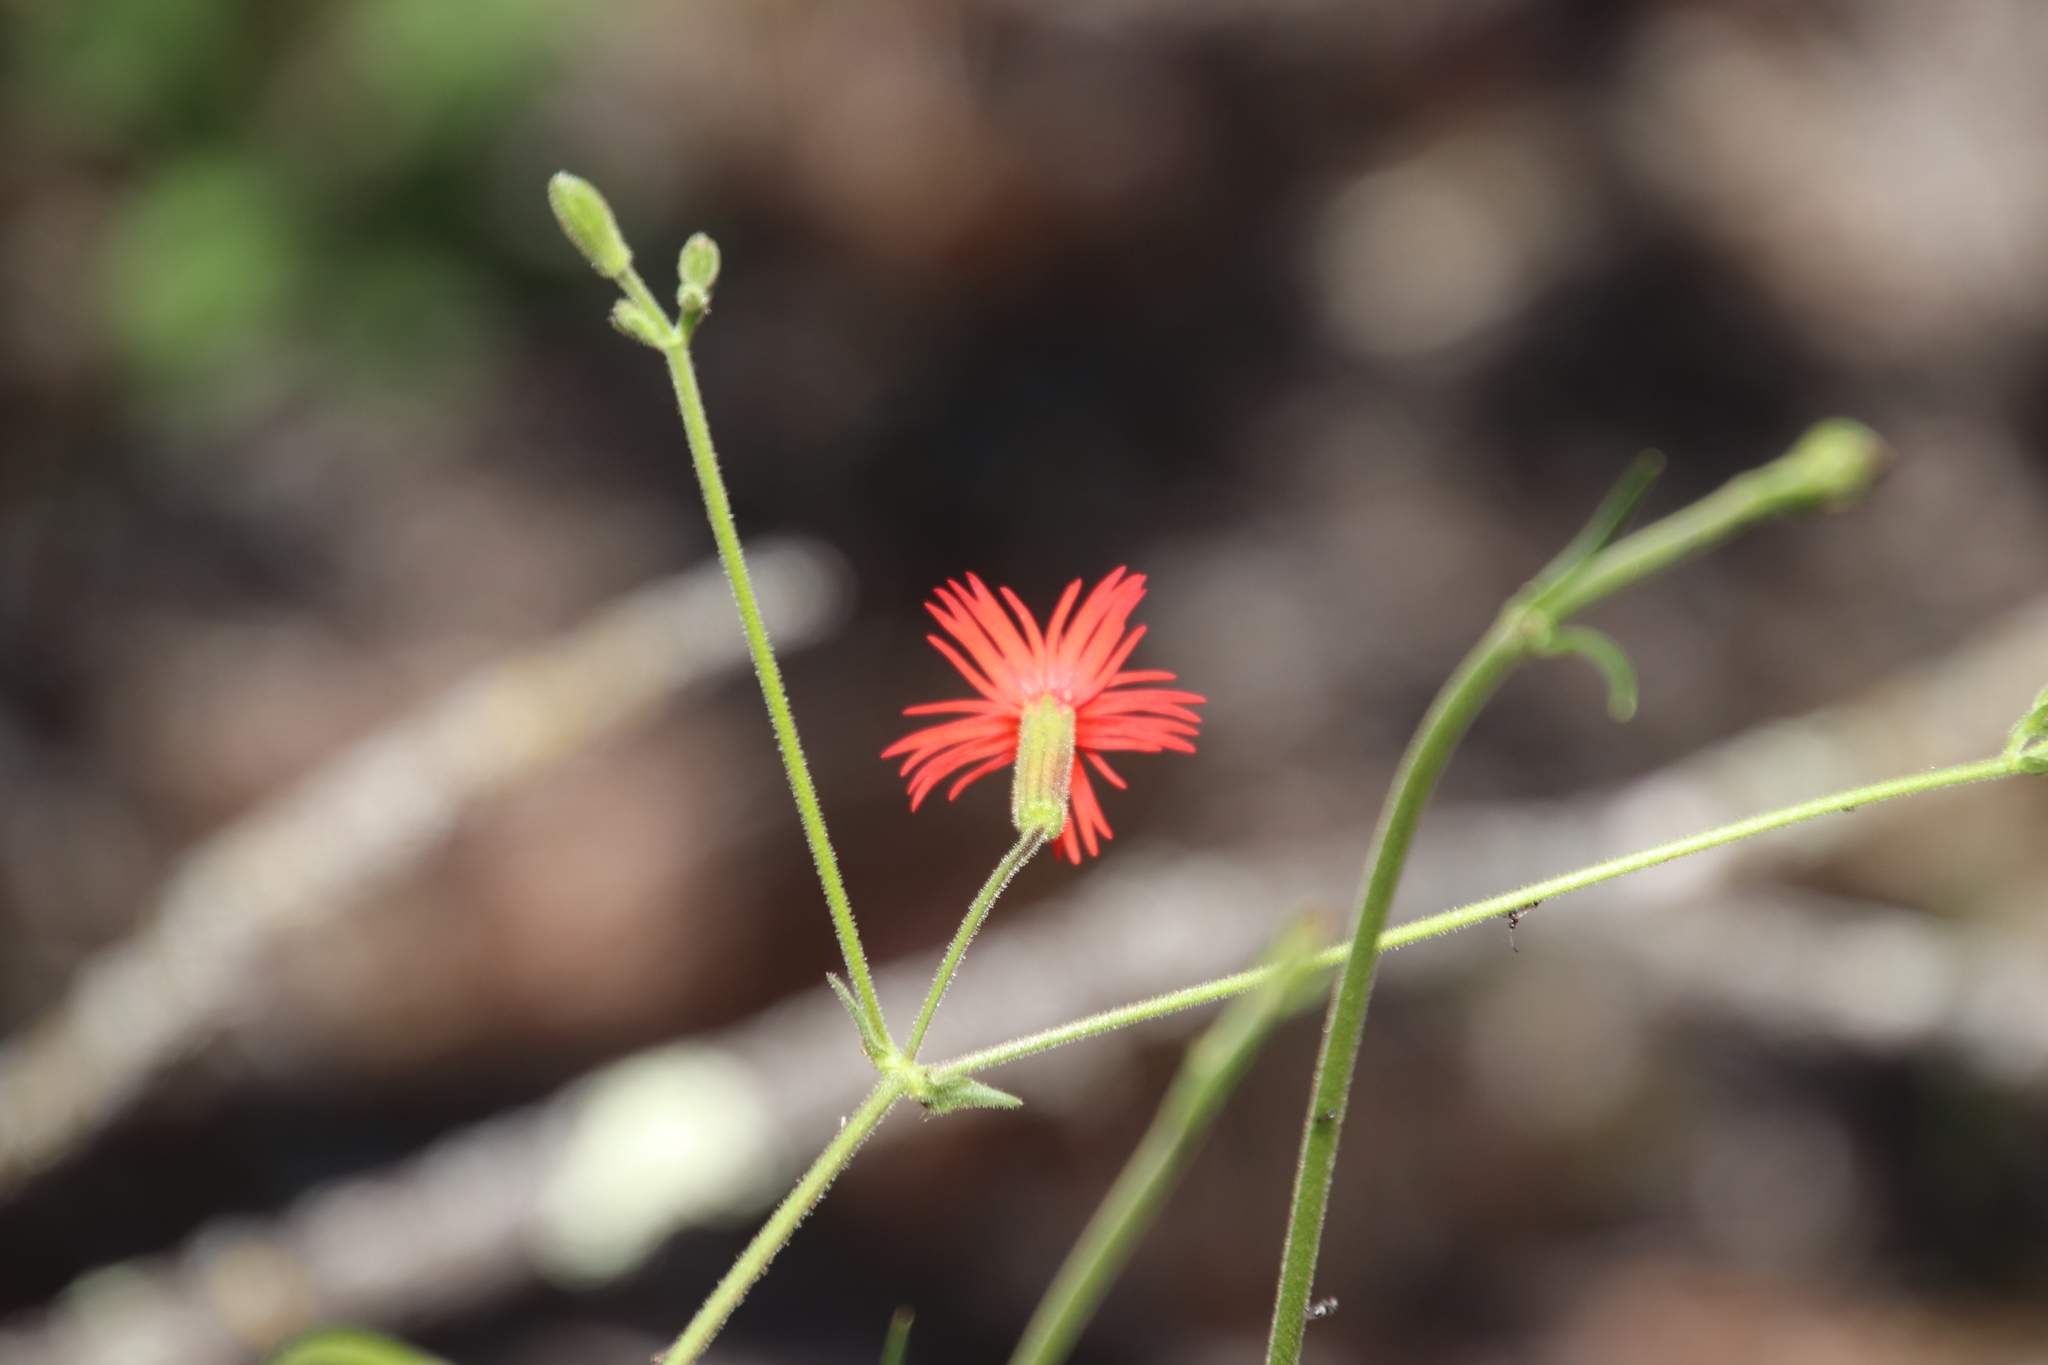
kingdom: Plantae
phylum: Tracheophyta
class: Magnoliopsida
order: Caryophyllales
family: Caryophyllaceae
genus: Silene
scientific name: Silene laciniata
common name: Indian-pink
